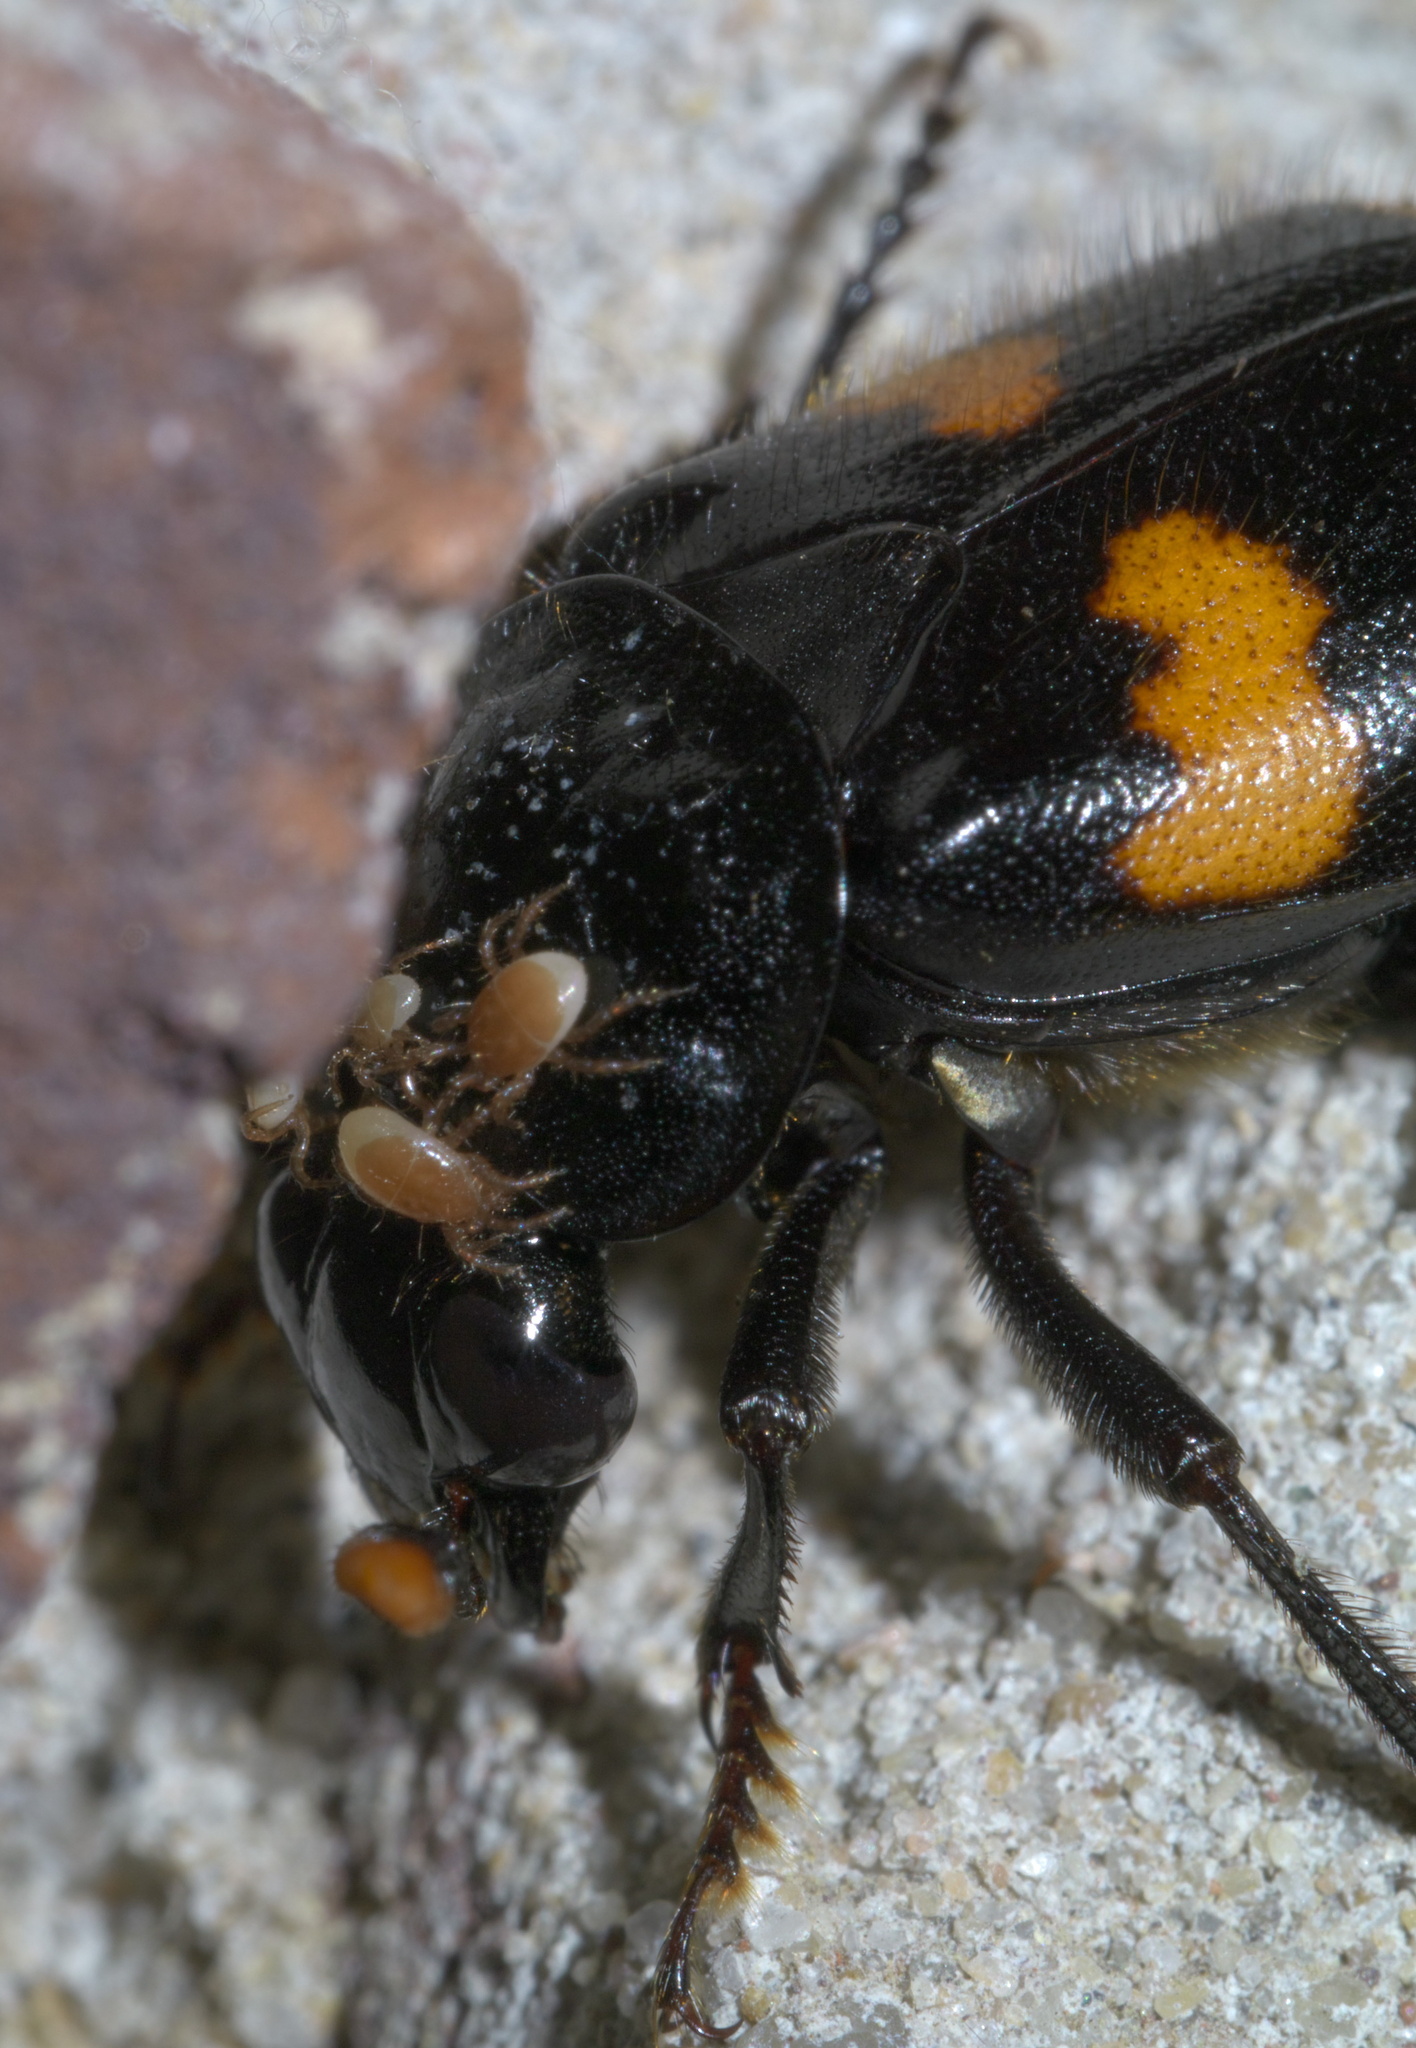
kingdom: Animalia
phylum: Arthropoda
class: Insecta
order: Coleoptera
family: Staphylinidae
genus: Nicrophorus
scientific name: Nicrophorus orbicollis
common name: Roundneck sexton beetle
